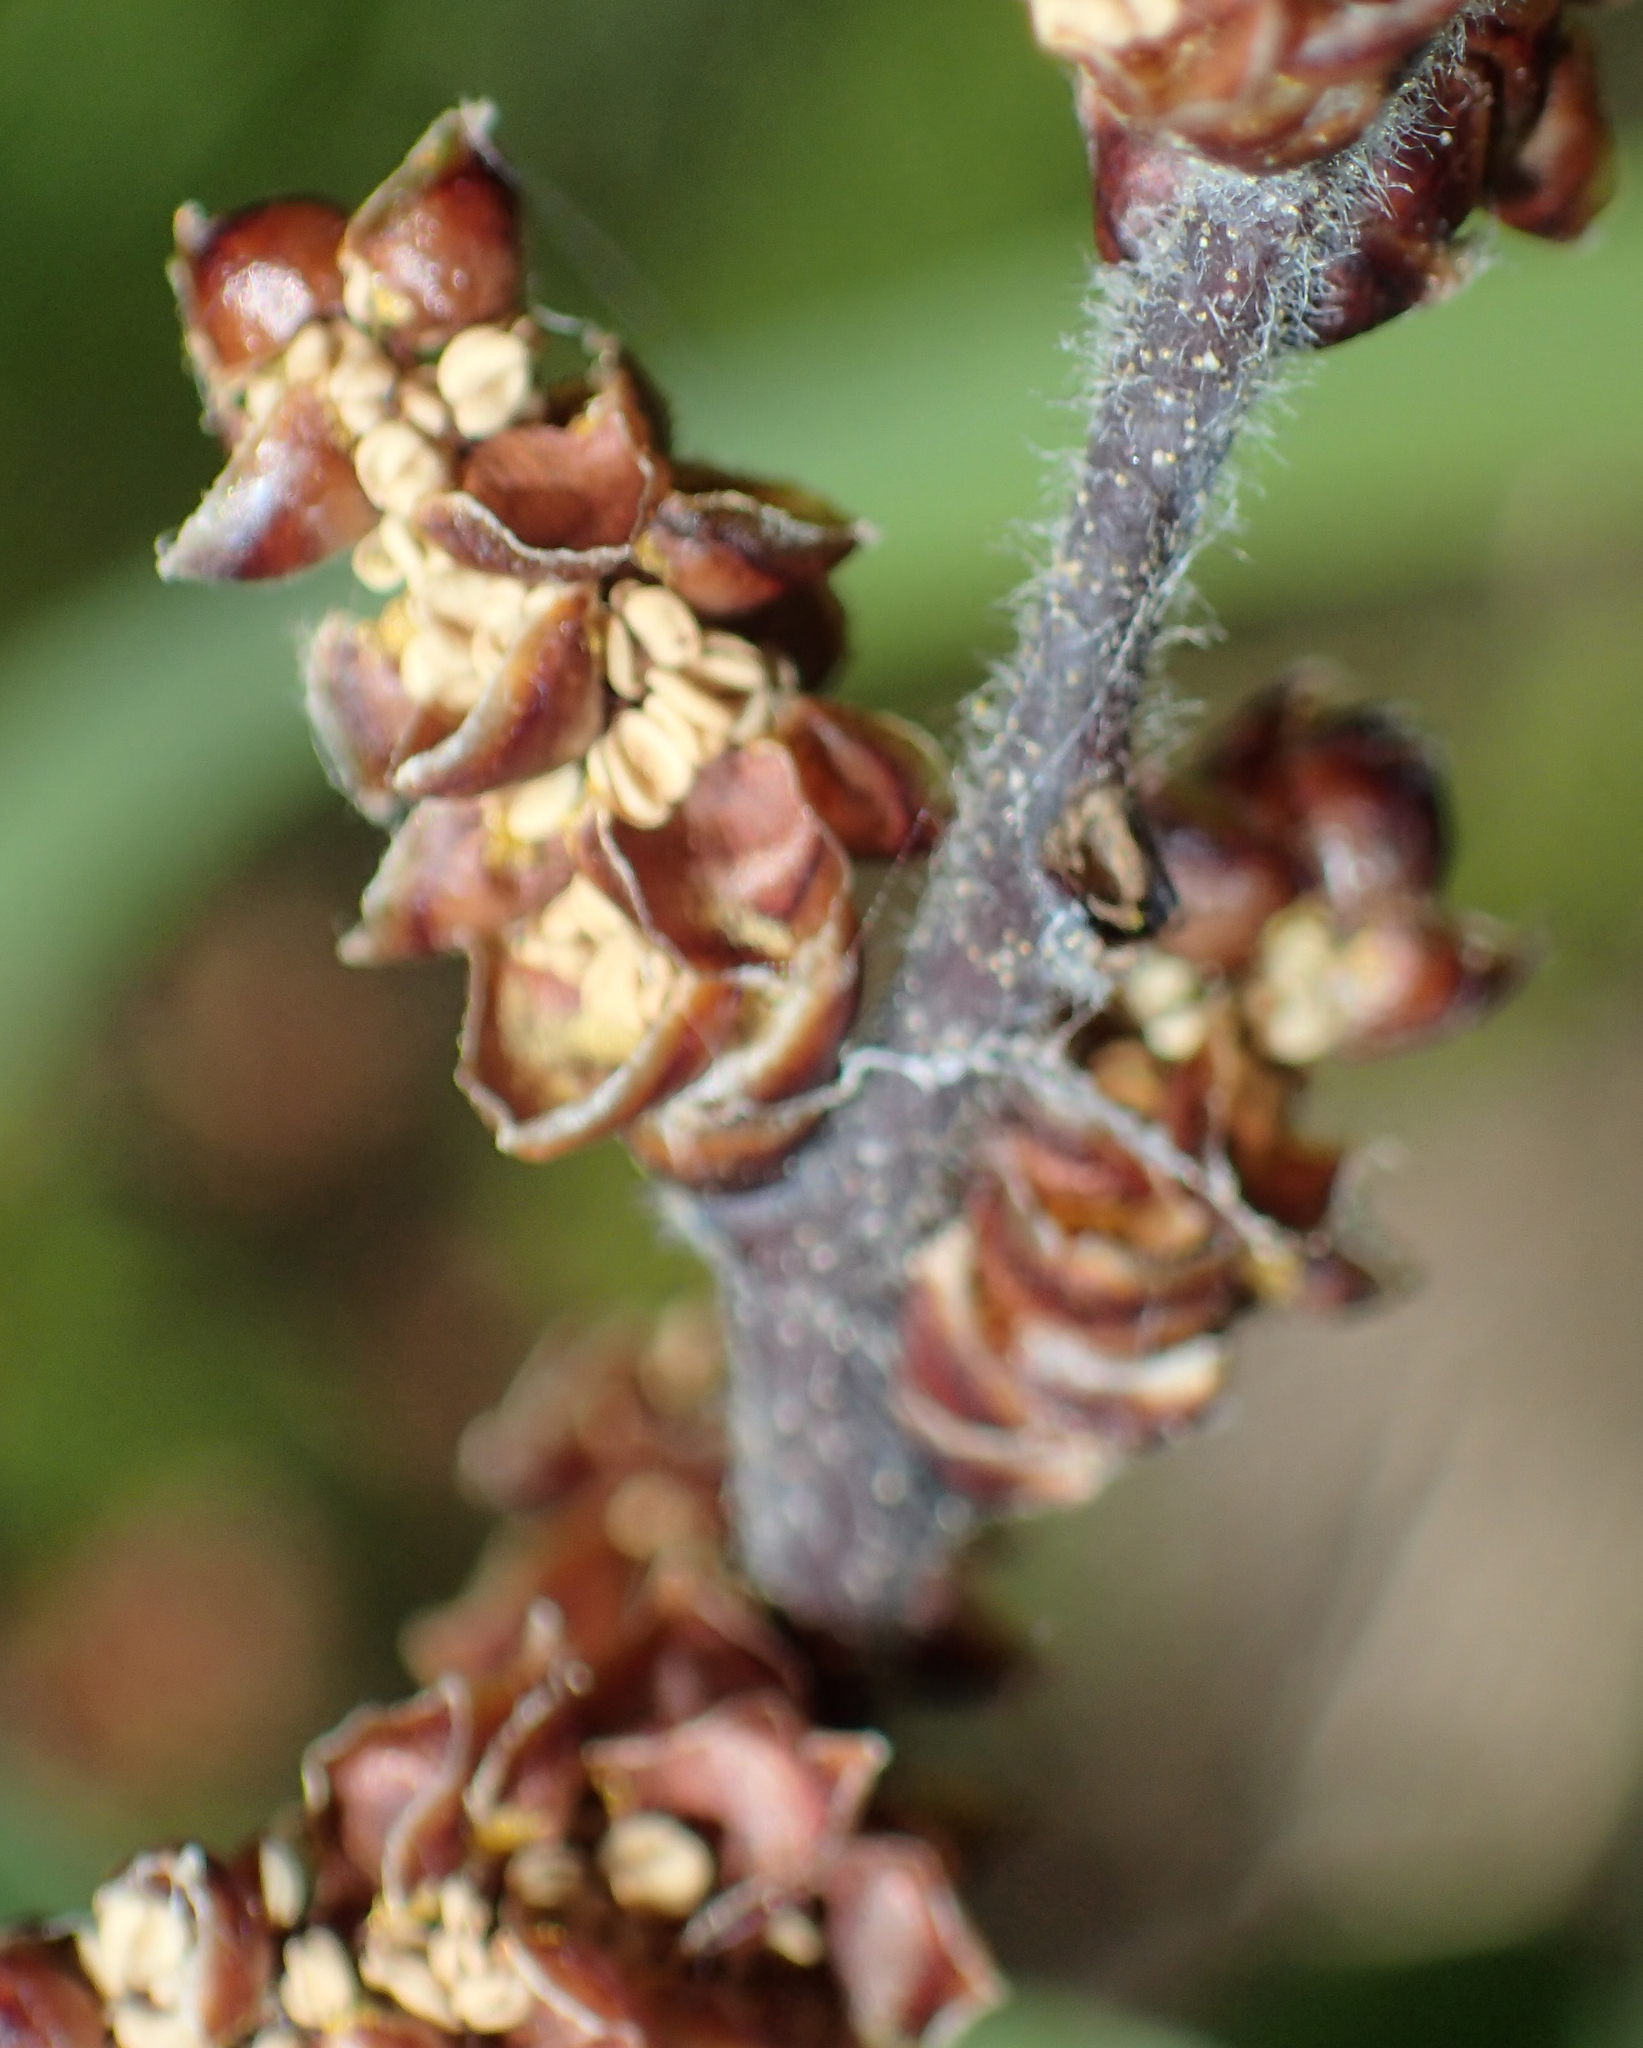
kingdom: Plantae
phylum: Tracheophyta
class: Magnoliopsida
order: Fagales
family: Myricaceae
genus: Myrica
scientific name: Myrica gale
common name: Sweet gale
